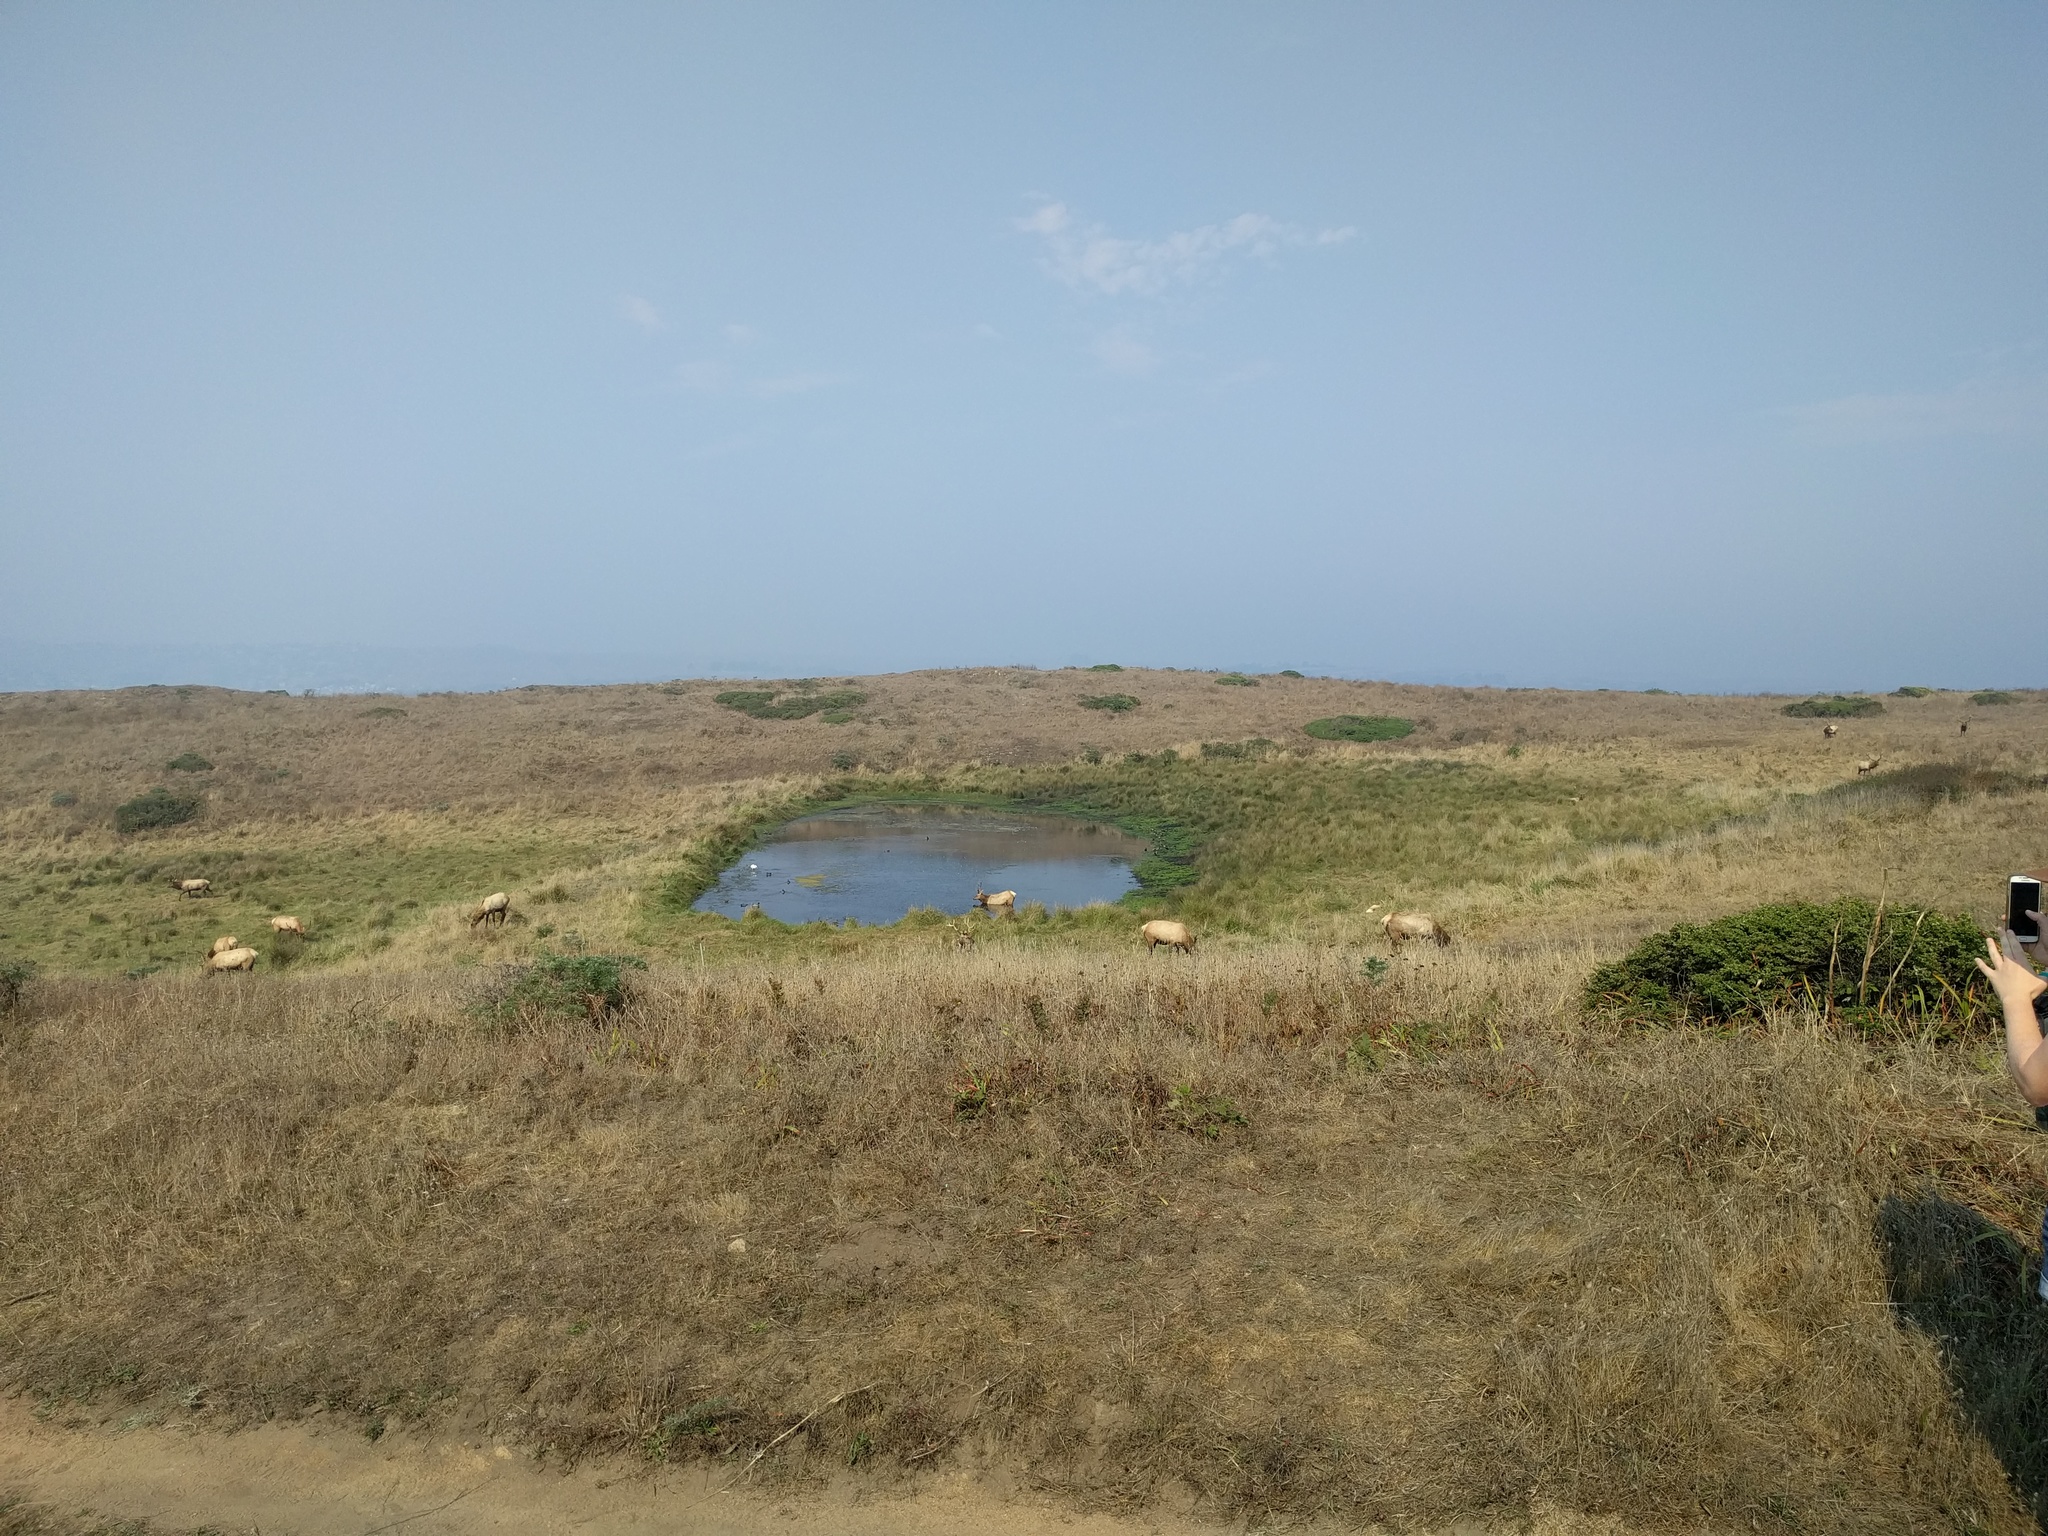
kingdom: Animalia
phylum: Chordata
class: Mammalia
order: Artiodactyla
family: Cervidae
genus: Cervus
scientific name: Cervus elaphus
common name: Red deer
